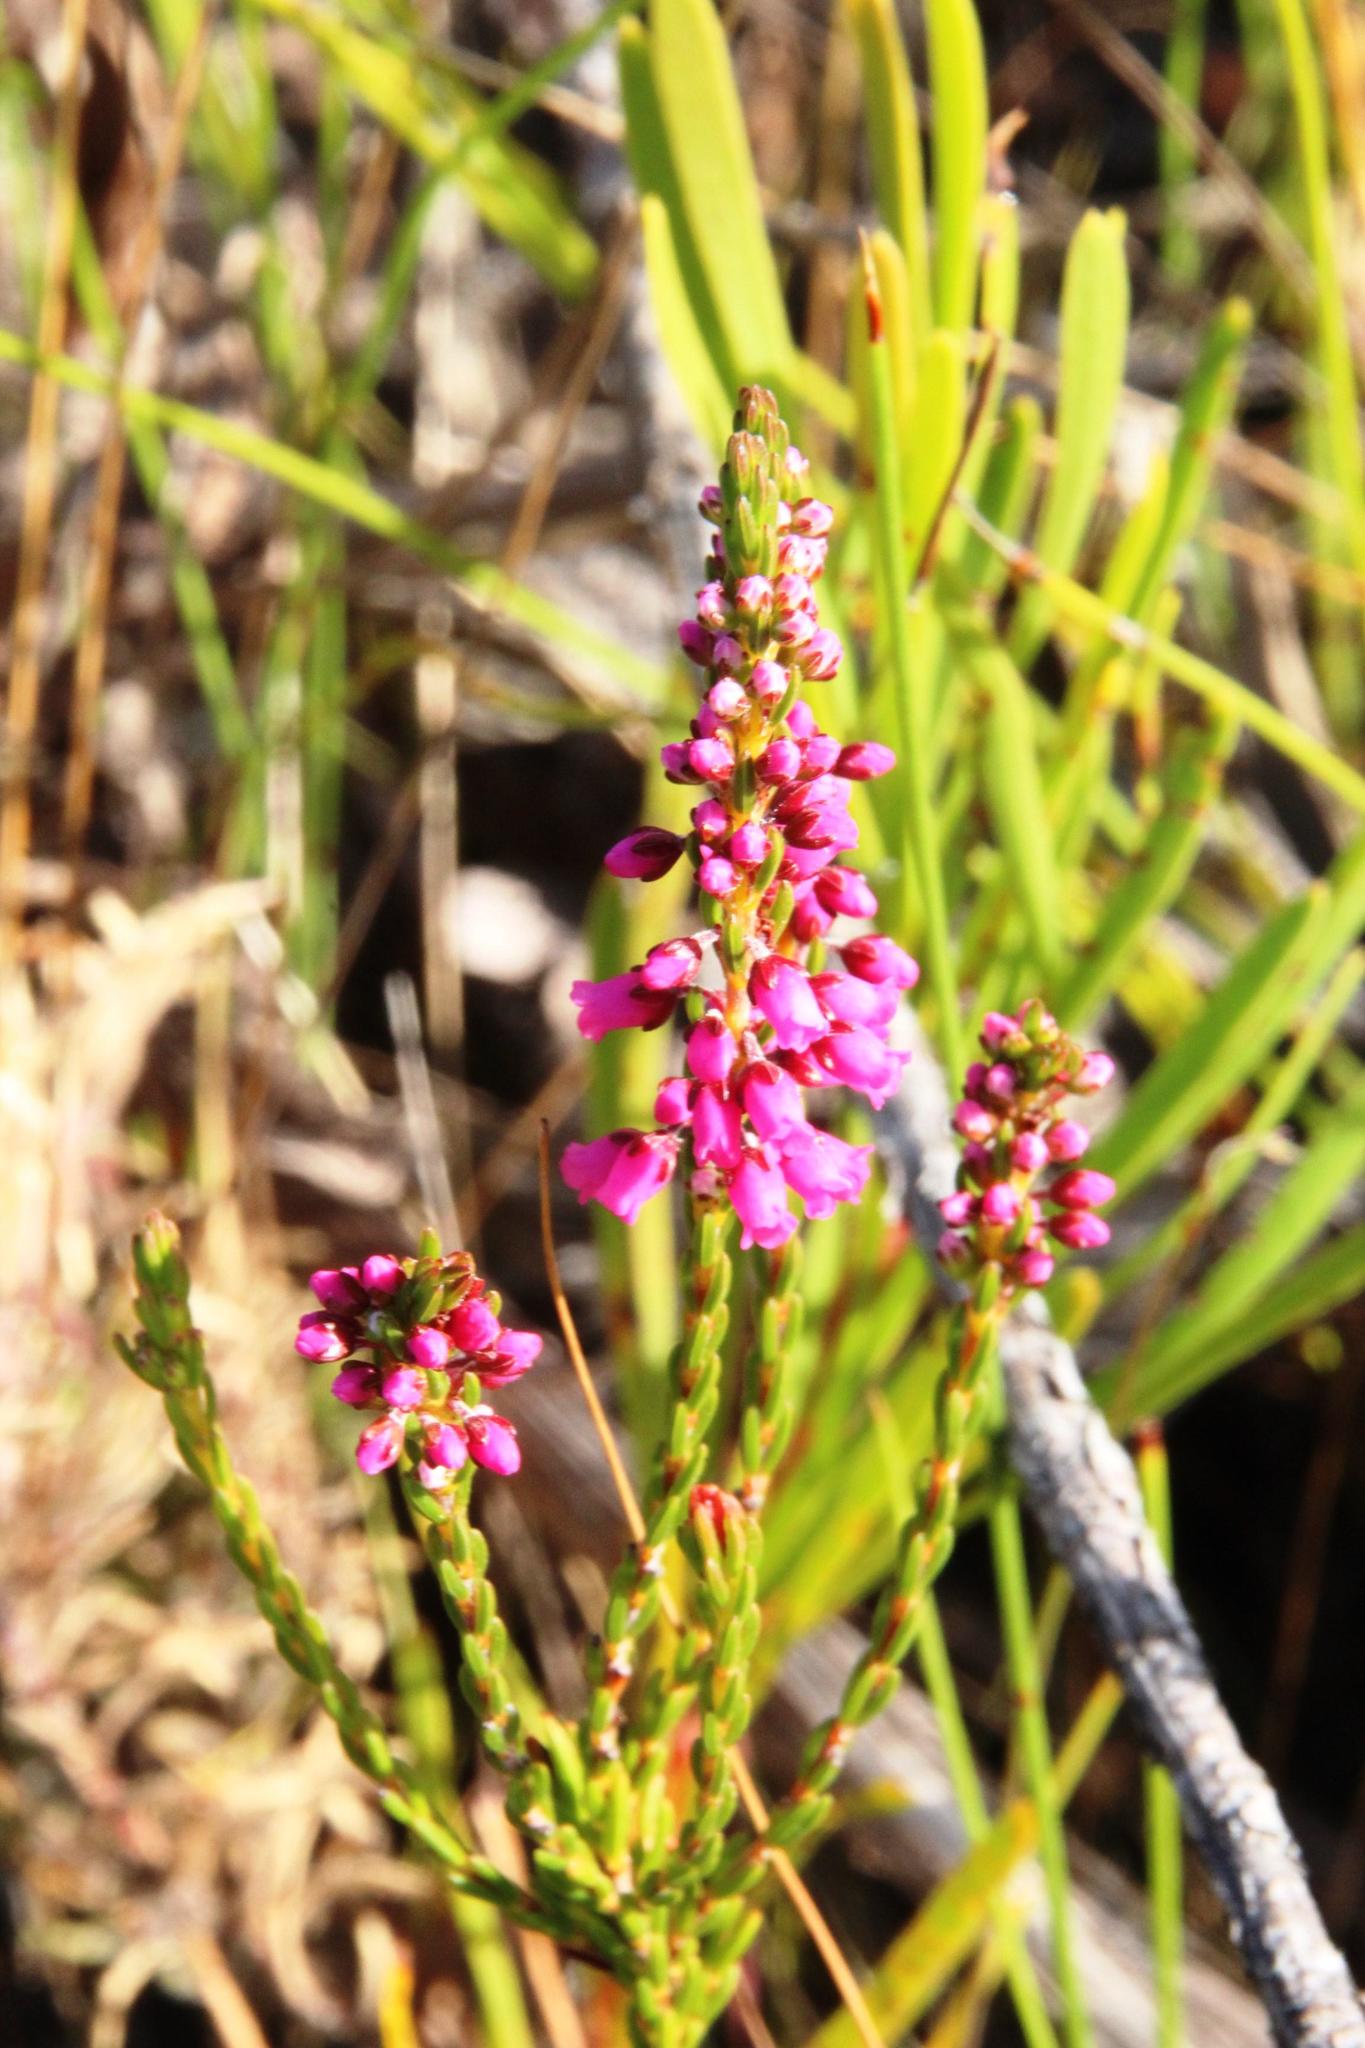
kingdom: Plantae
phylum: Tracheophyta
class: Magnoliopsida
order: Ericales
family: Ericaceae
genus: Erica
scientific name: Erica pulchella
